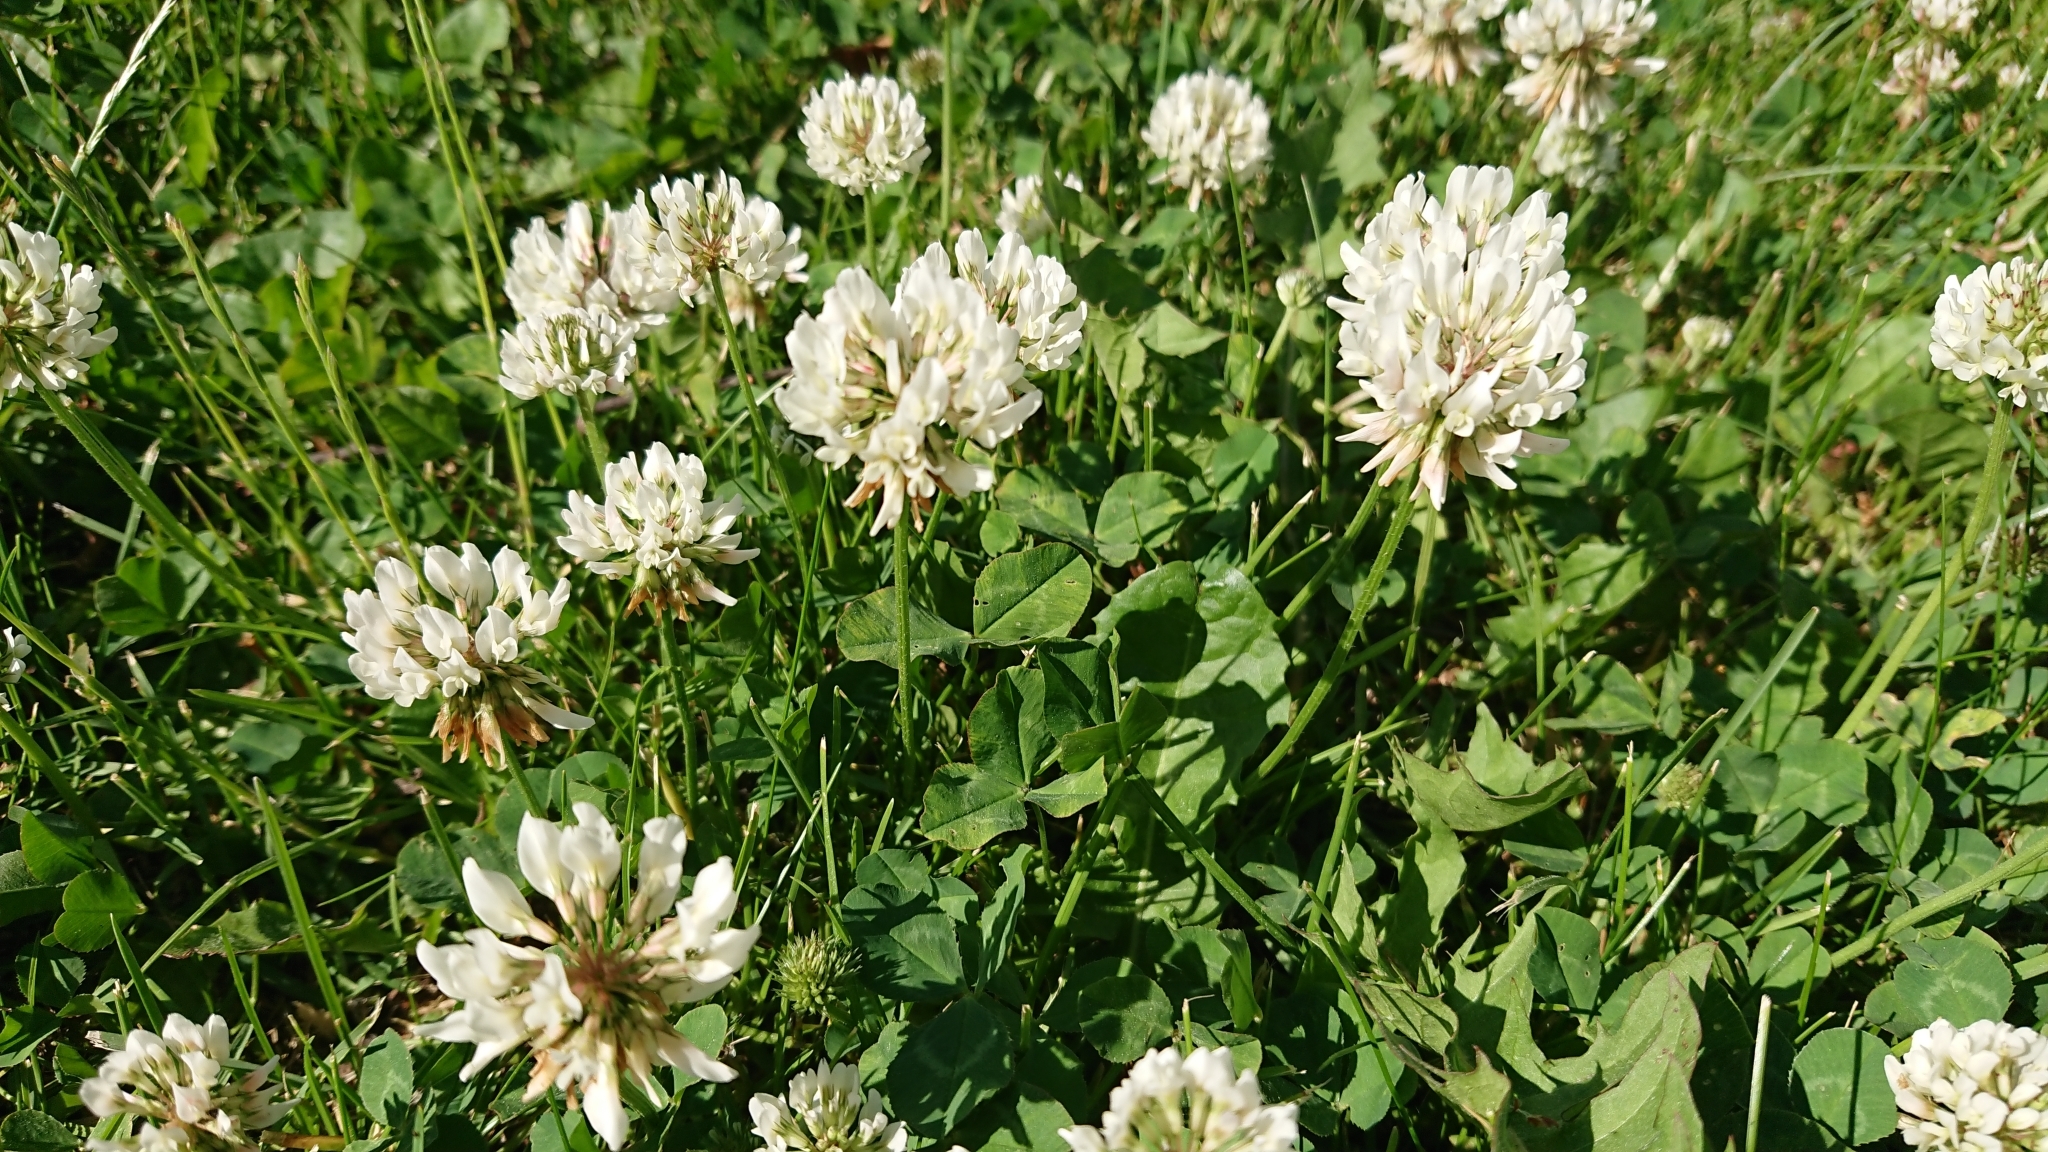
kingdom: Plantae
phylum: Tracheophyta
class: Magnoliopsida
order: Fabales
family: Fabaceae
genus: Trifolium
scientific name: Trifolium repens
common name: White clover
